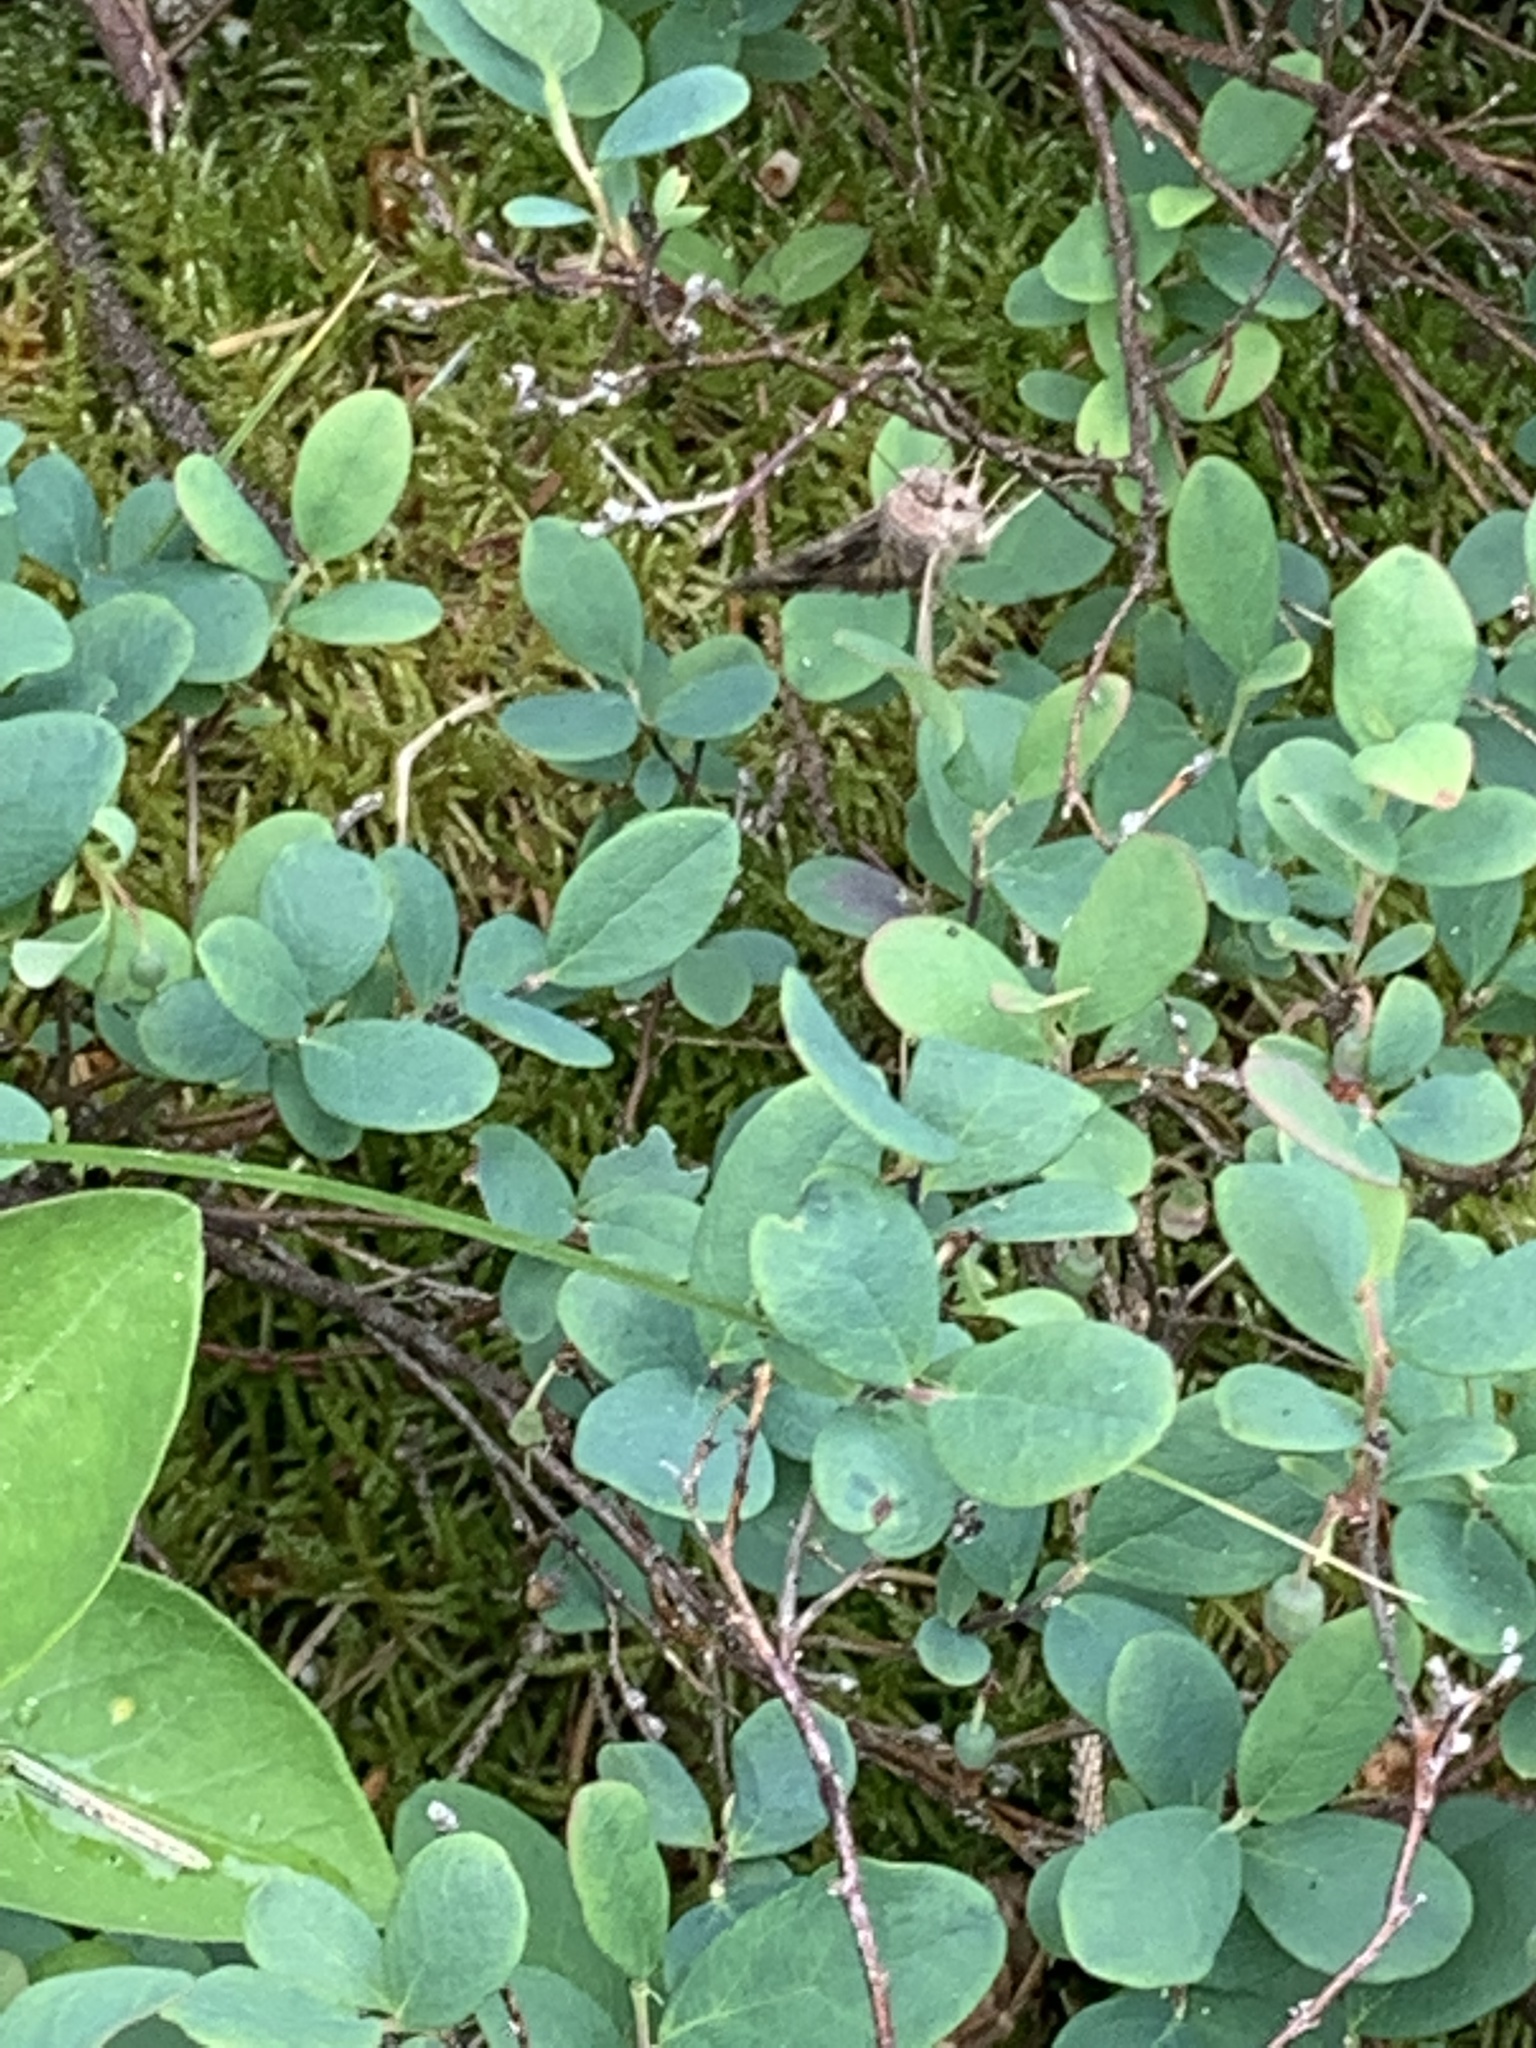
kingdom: Animalia
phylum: Arthropoda
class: Insecta
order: Lepidoptera
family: Noctuidae
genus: Autographa
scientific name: Autographa gamma
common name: Silver y
